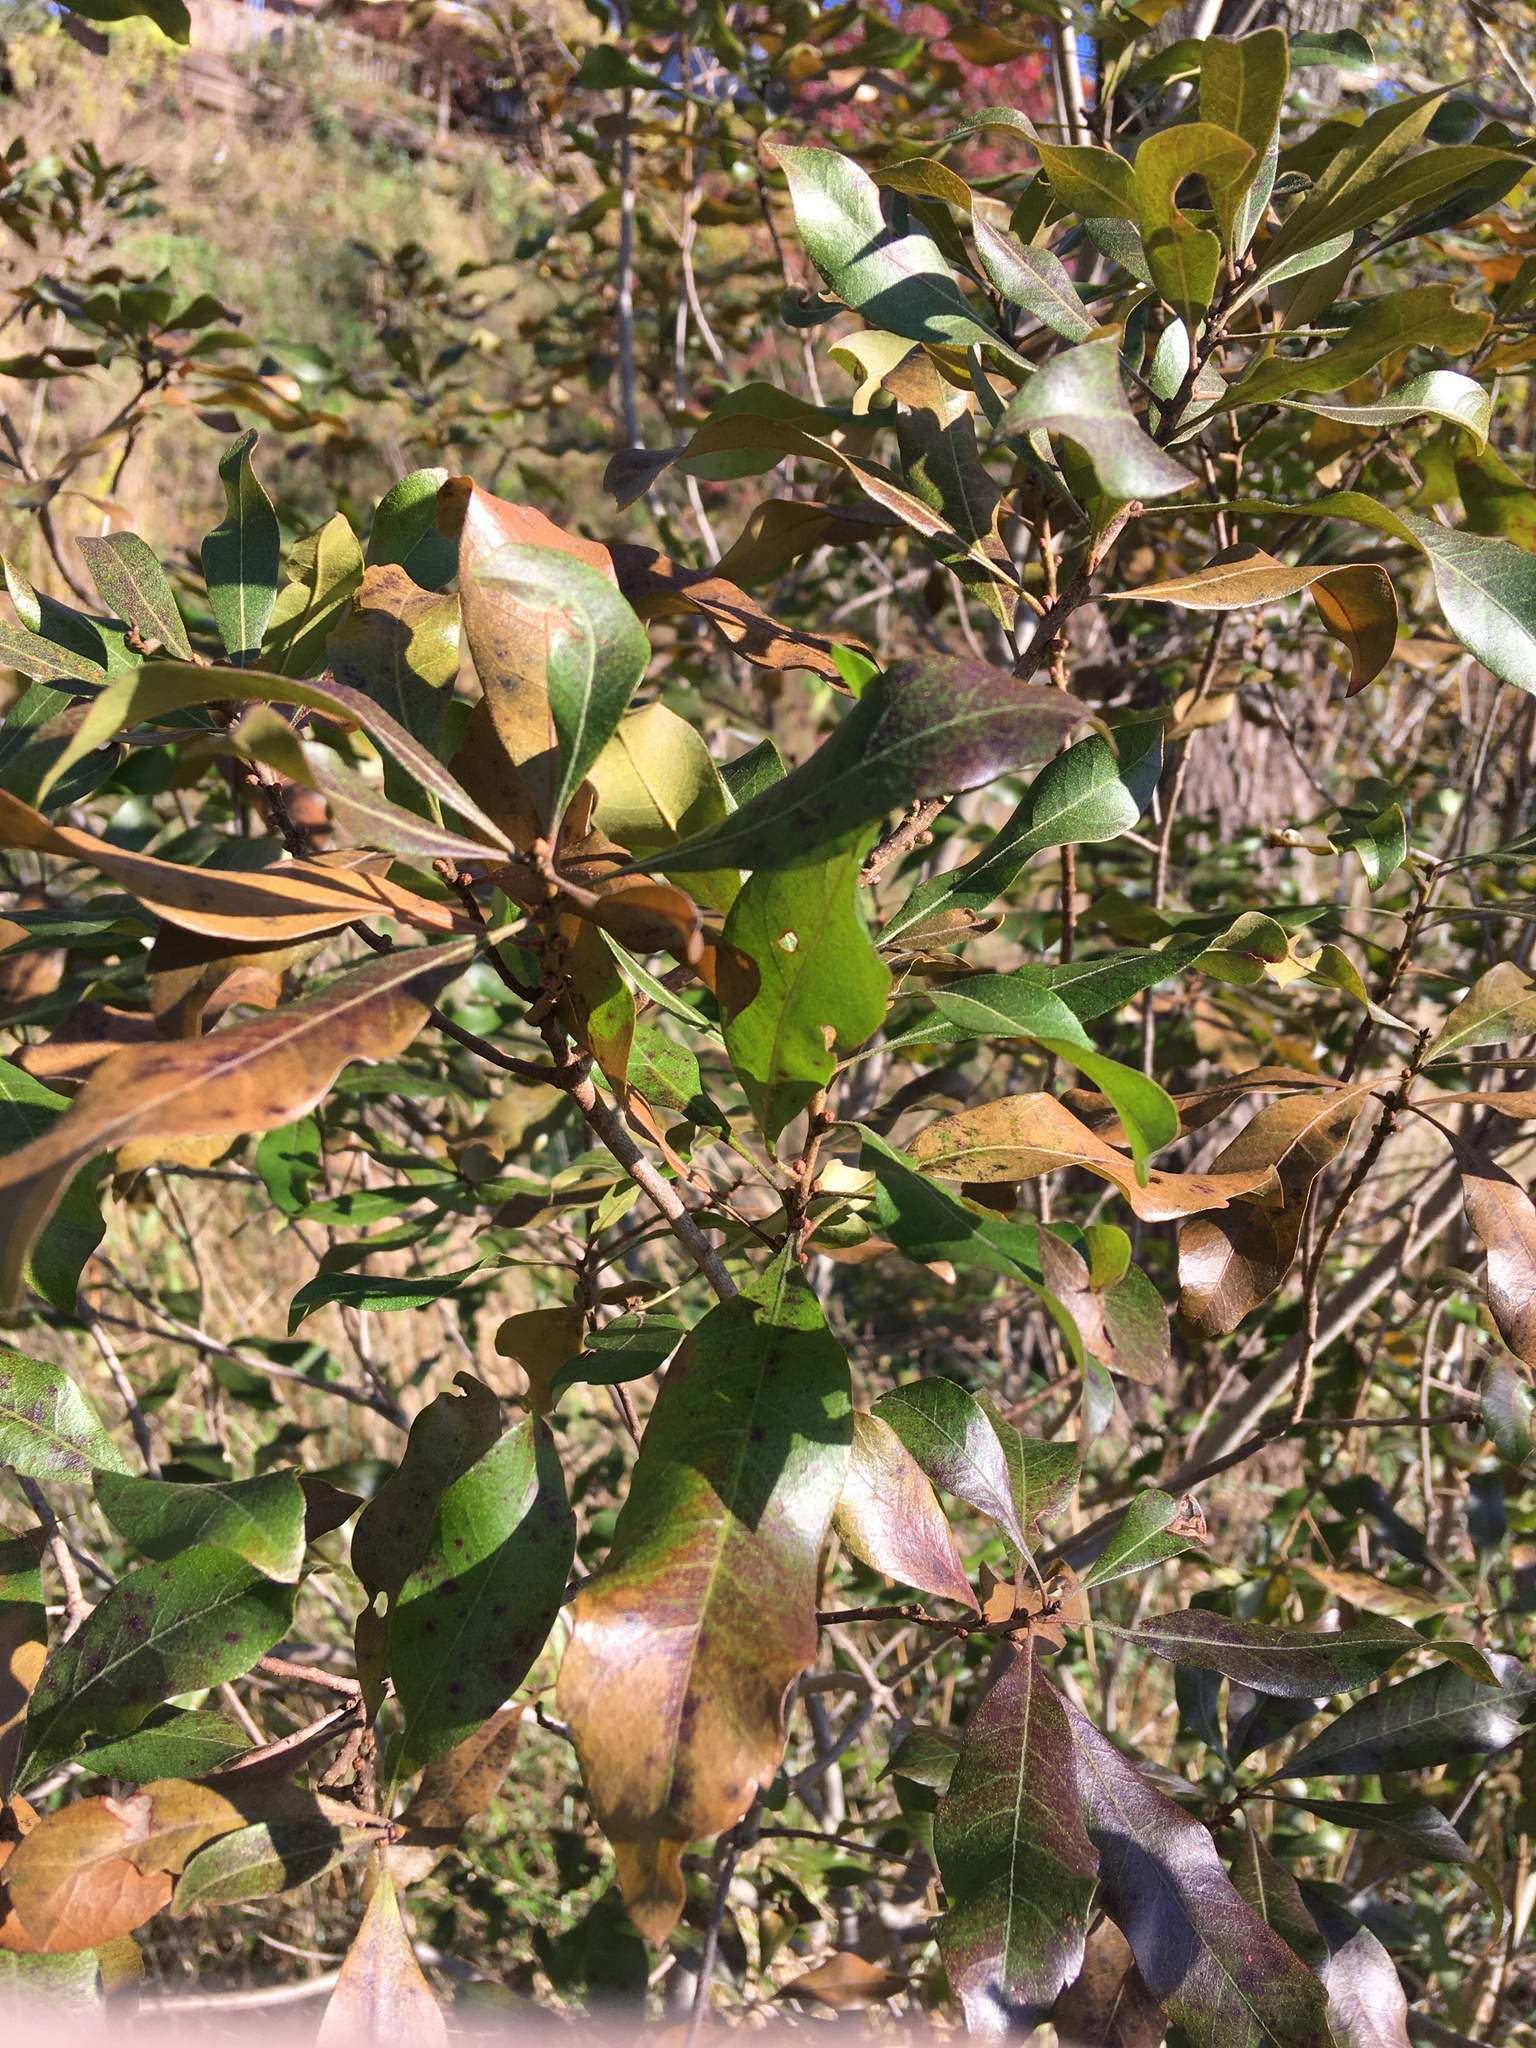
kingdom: Plantae
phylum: Tracheophyta
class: Magnoliopsida
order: Fagales
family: Myricaceae
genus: Morella
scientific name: Morella pensylvanica
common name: Northern bayberry
